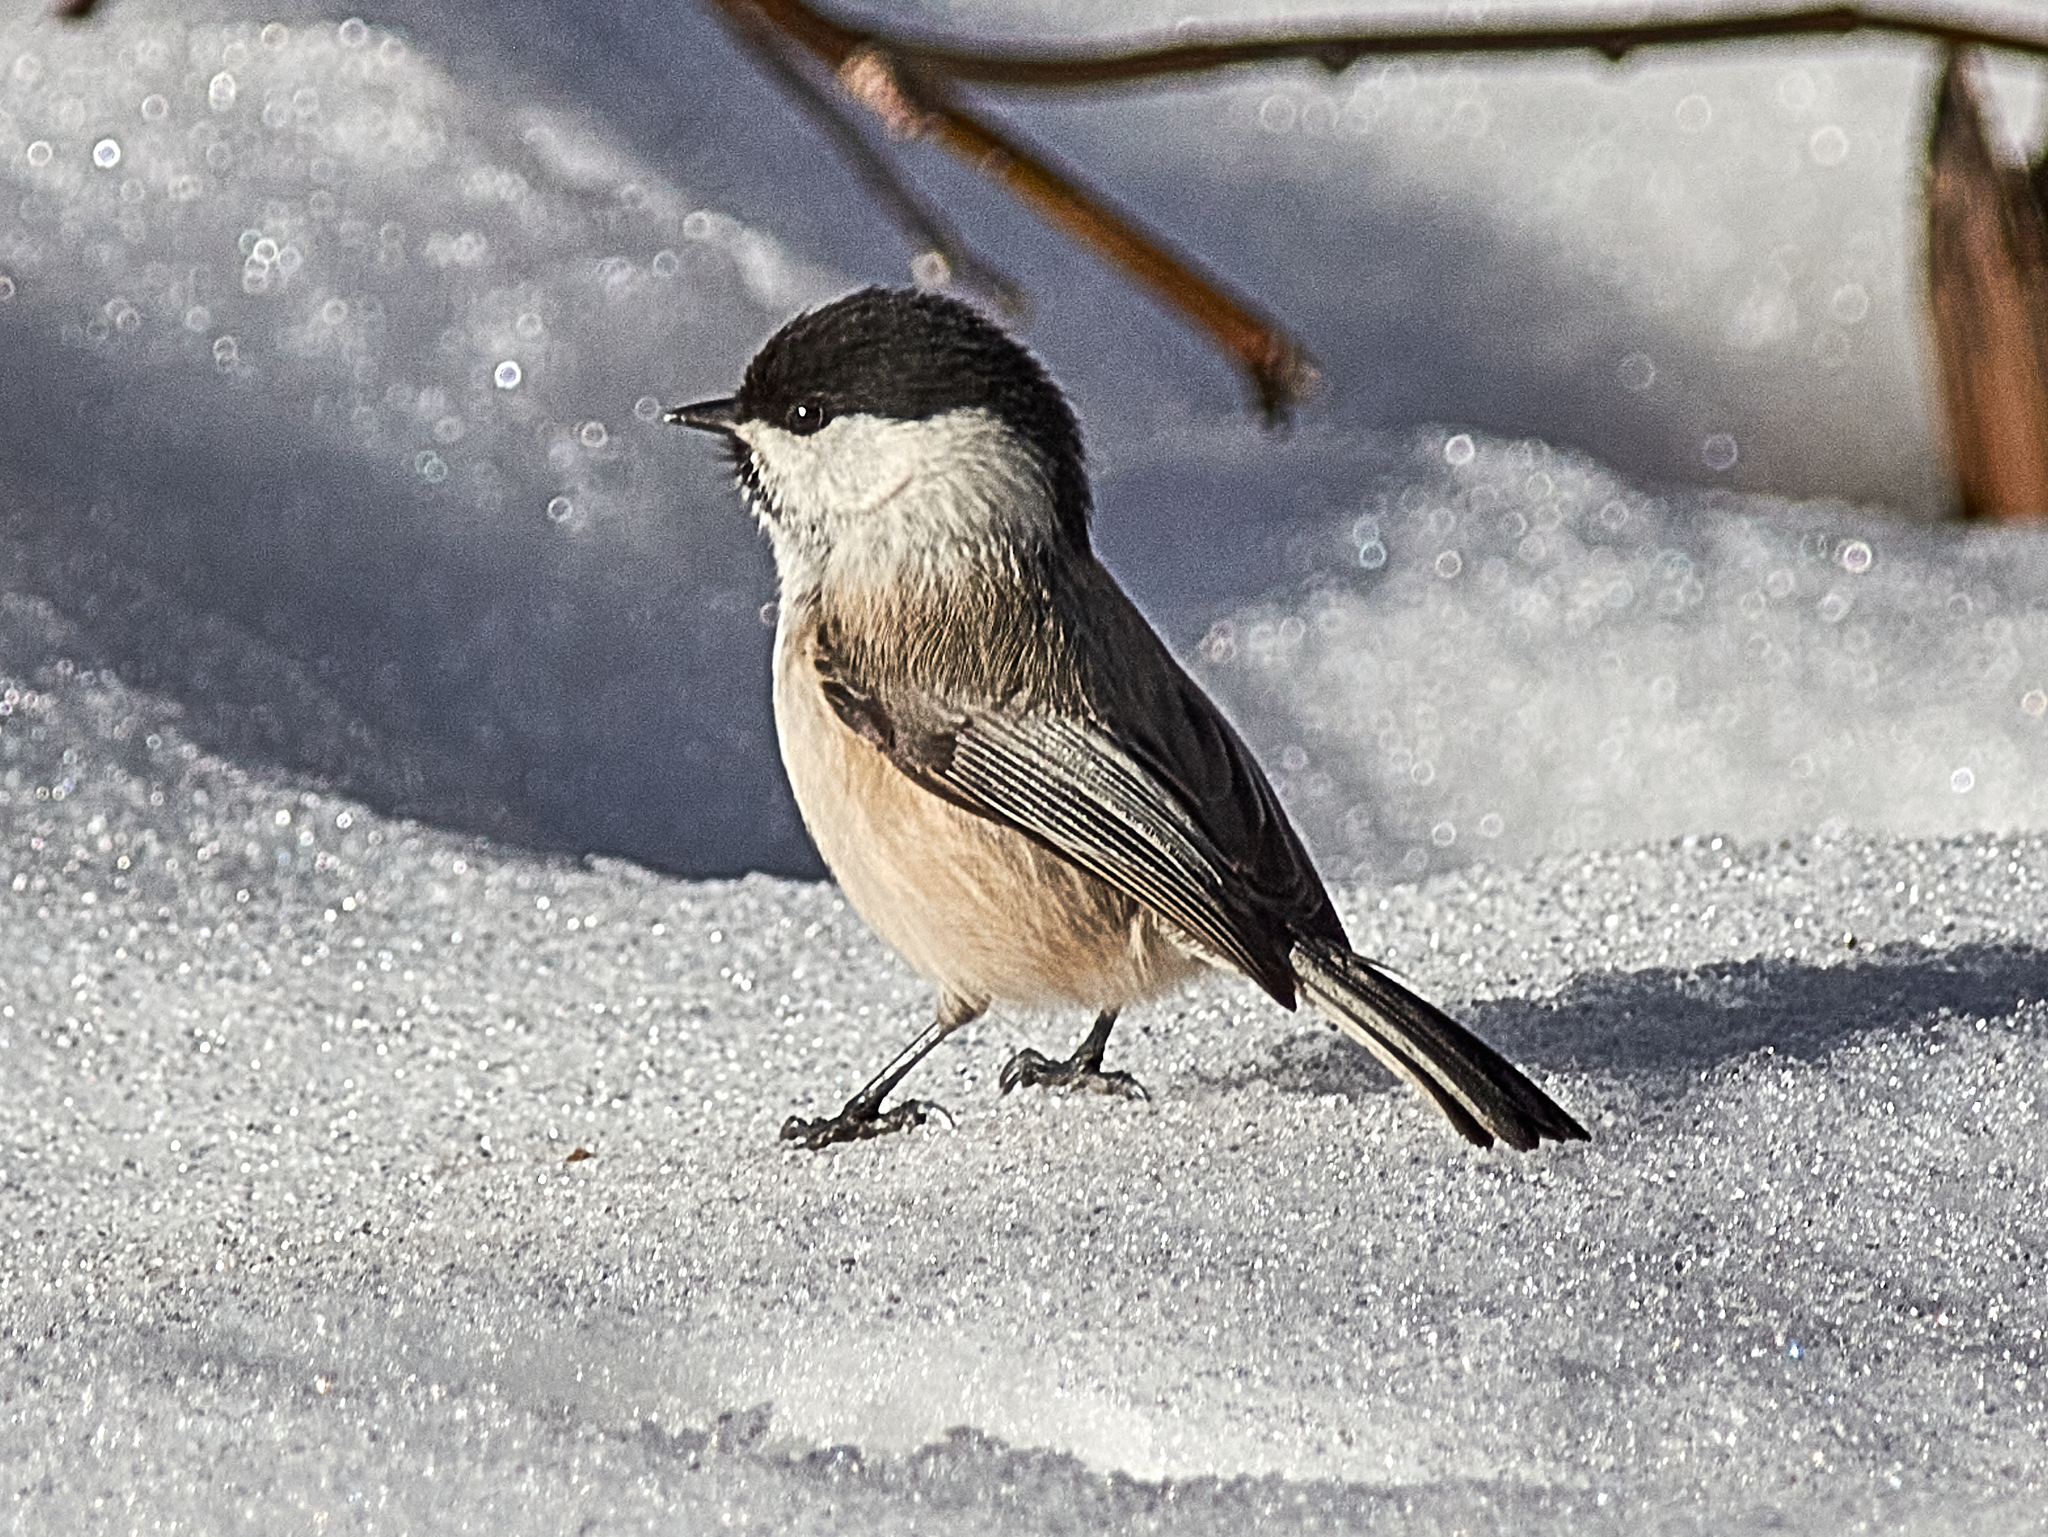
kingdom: Animalia
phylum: Chordata
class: Aves
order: Passeriformes
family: Paridae
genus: Poecile
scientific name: Poecile palustris
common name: Marsh tit
